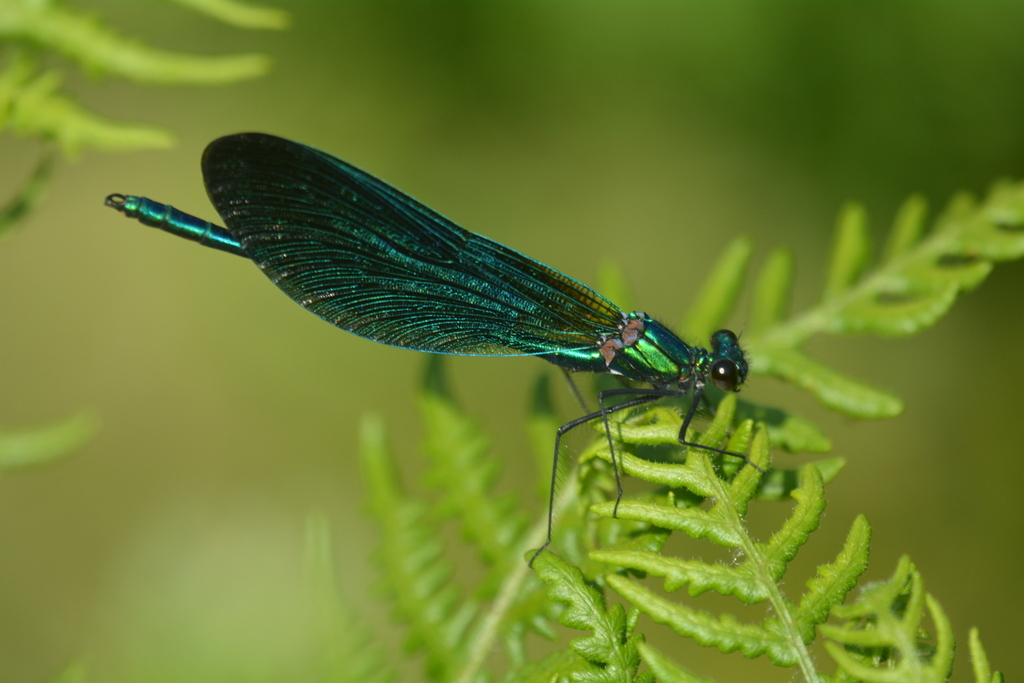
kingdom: Animalia
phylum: Arthropoda
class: Insecta
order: Odonata
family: Calopterygidae
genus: Calopteryx
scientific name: Calopteryx virgo
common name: Beautiful demoiselle
